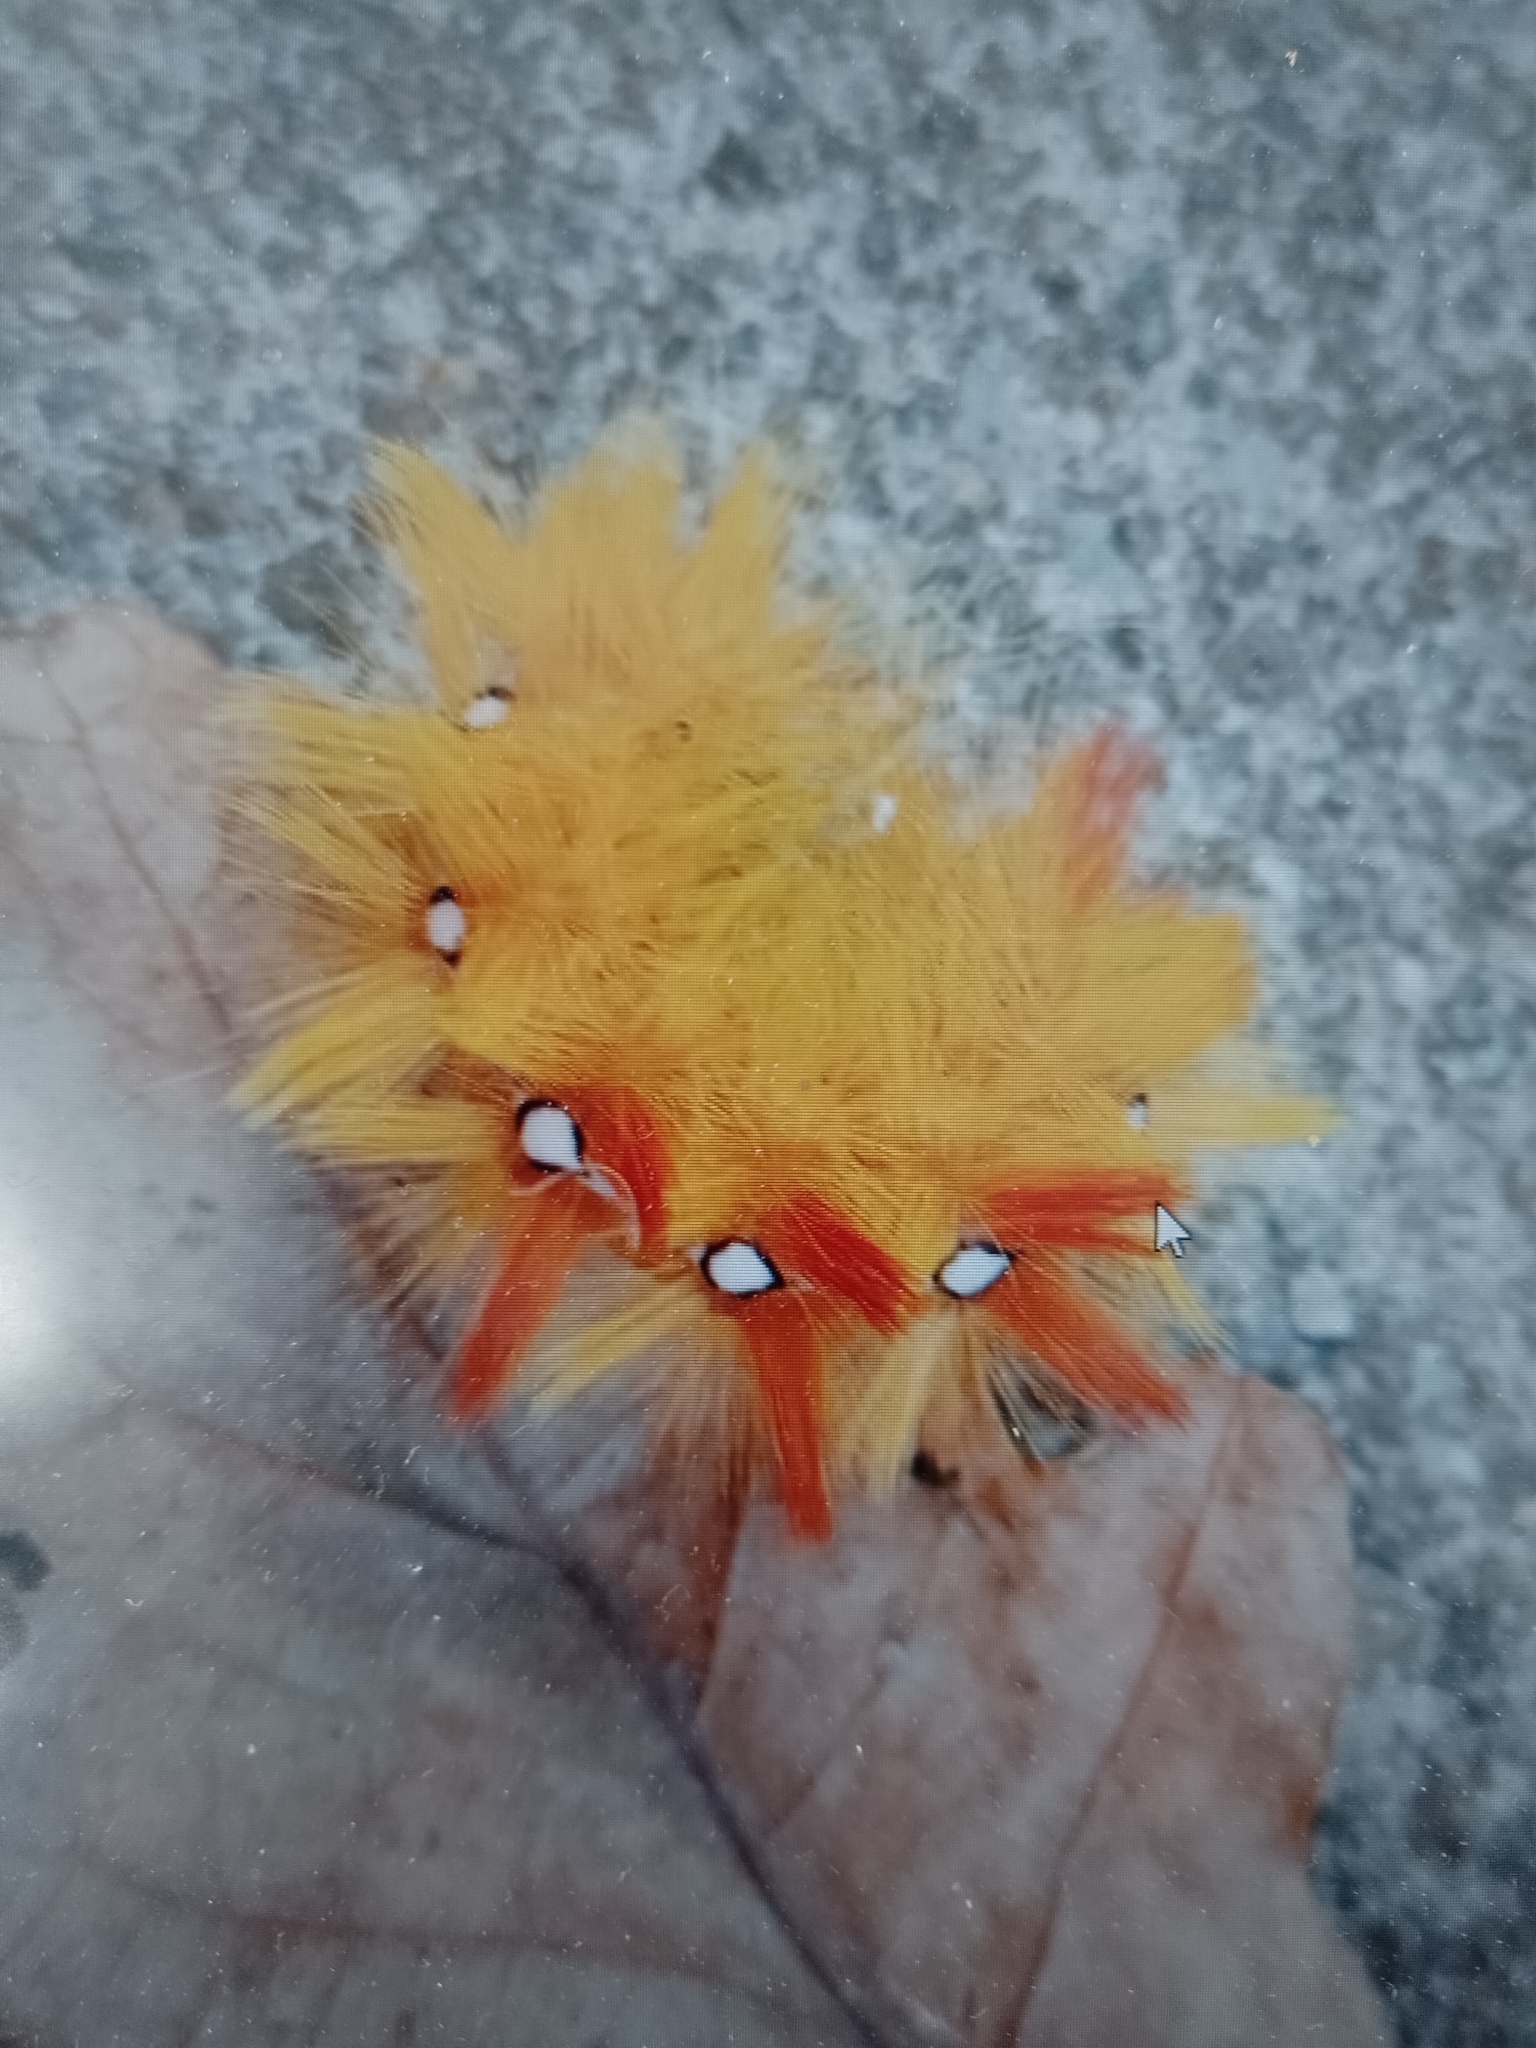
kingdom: Animalia
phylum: Arthropoda
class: Insecta
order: Lepidoptera
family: Noctuidae
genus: Acronicta
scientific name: Acronicta aceris
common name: Sycamore
